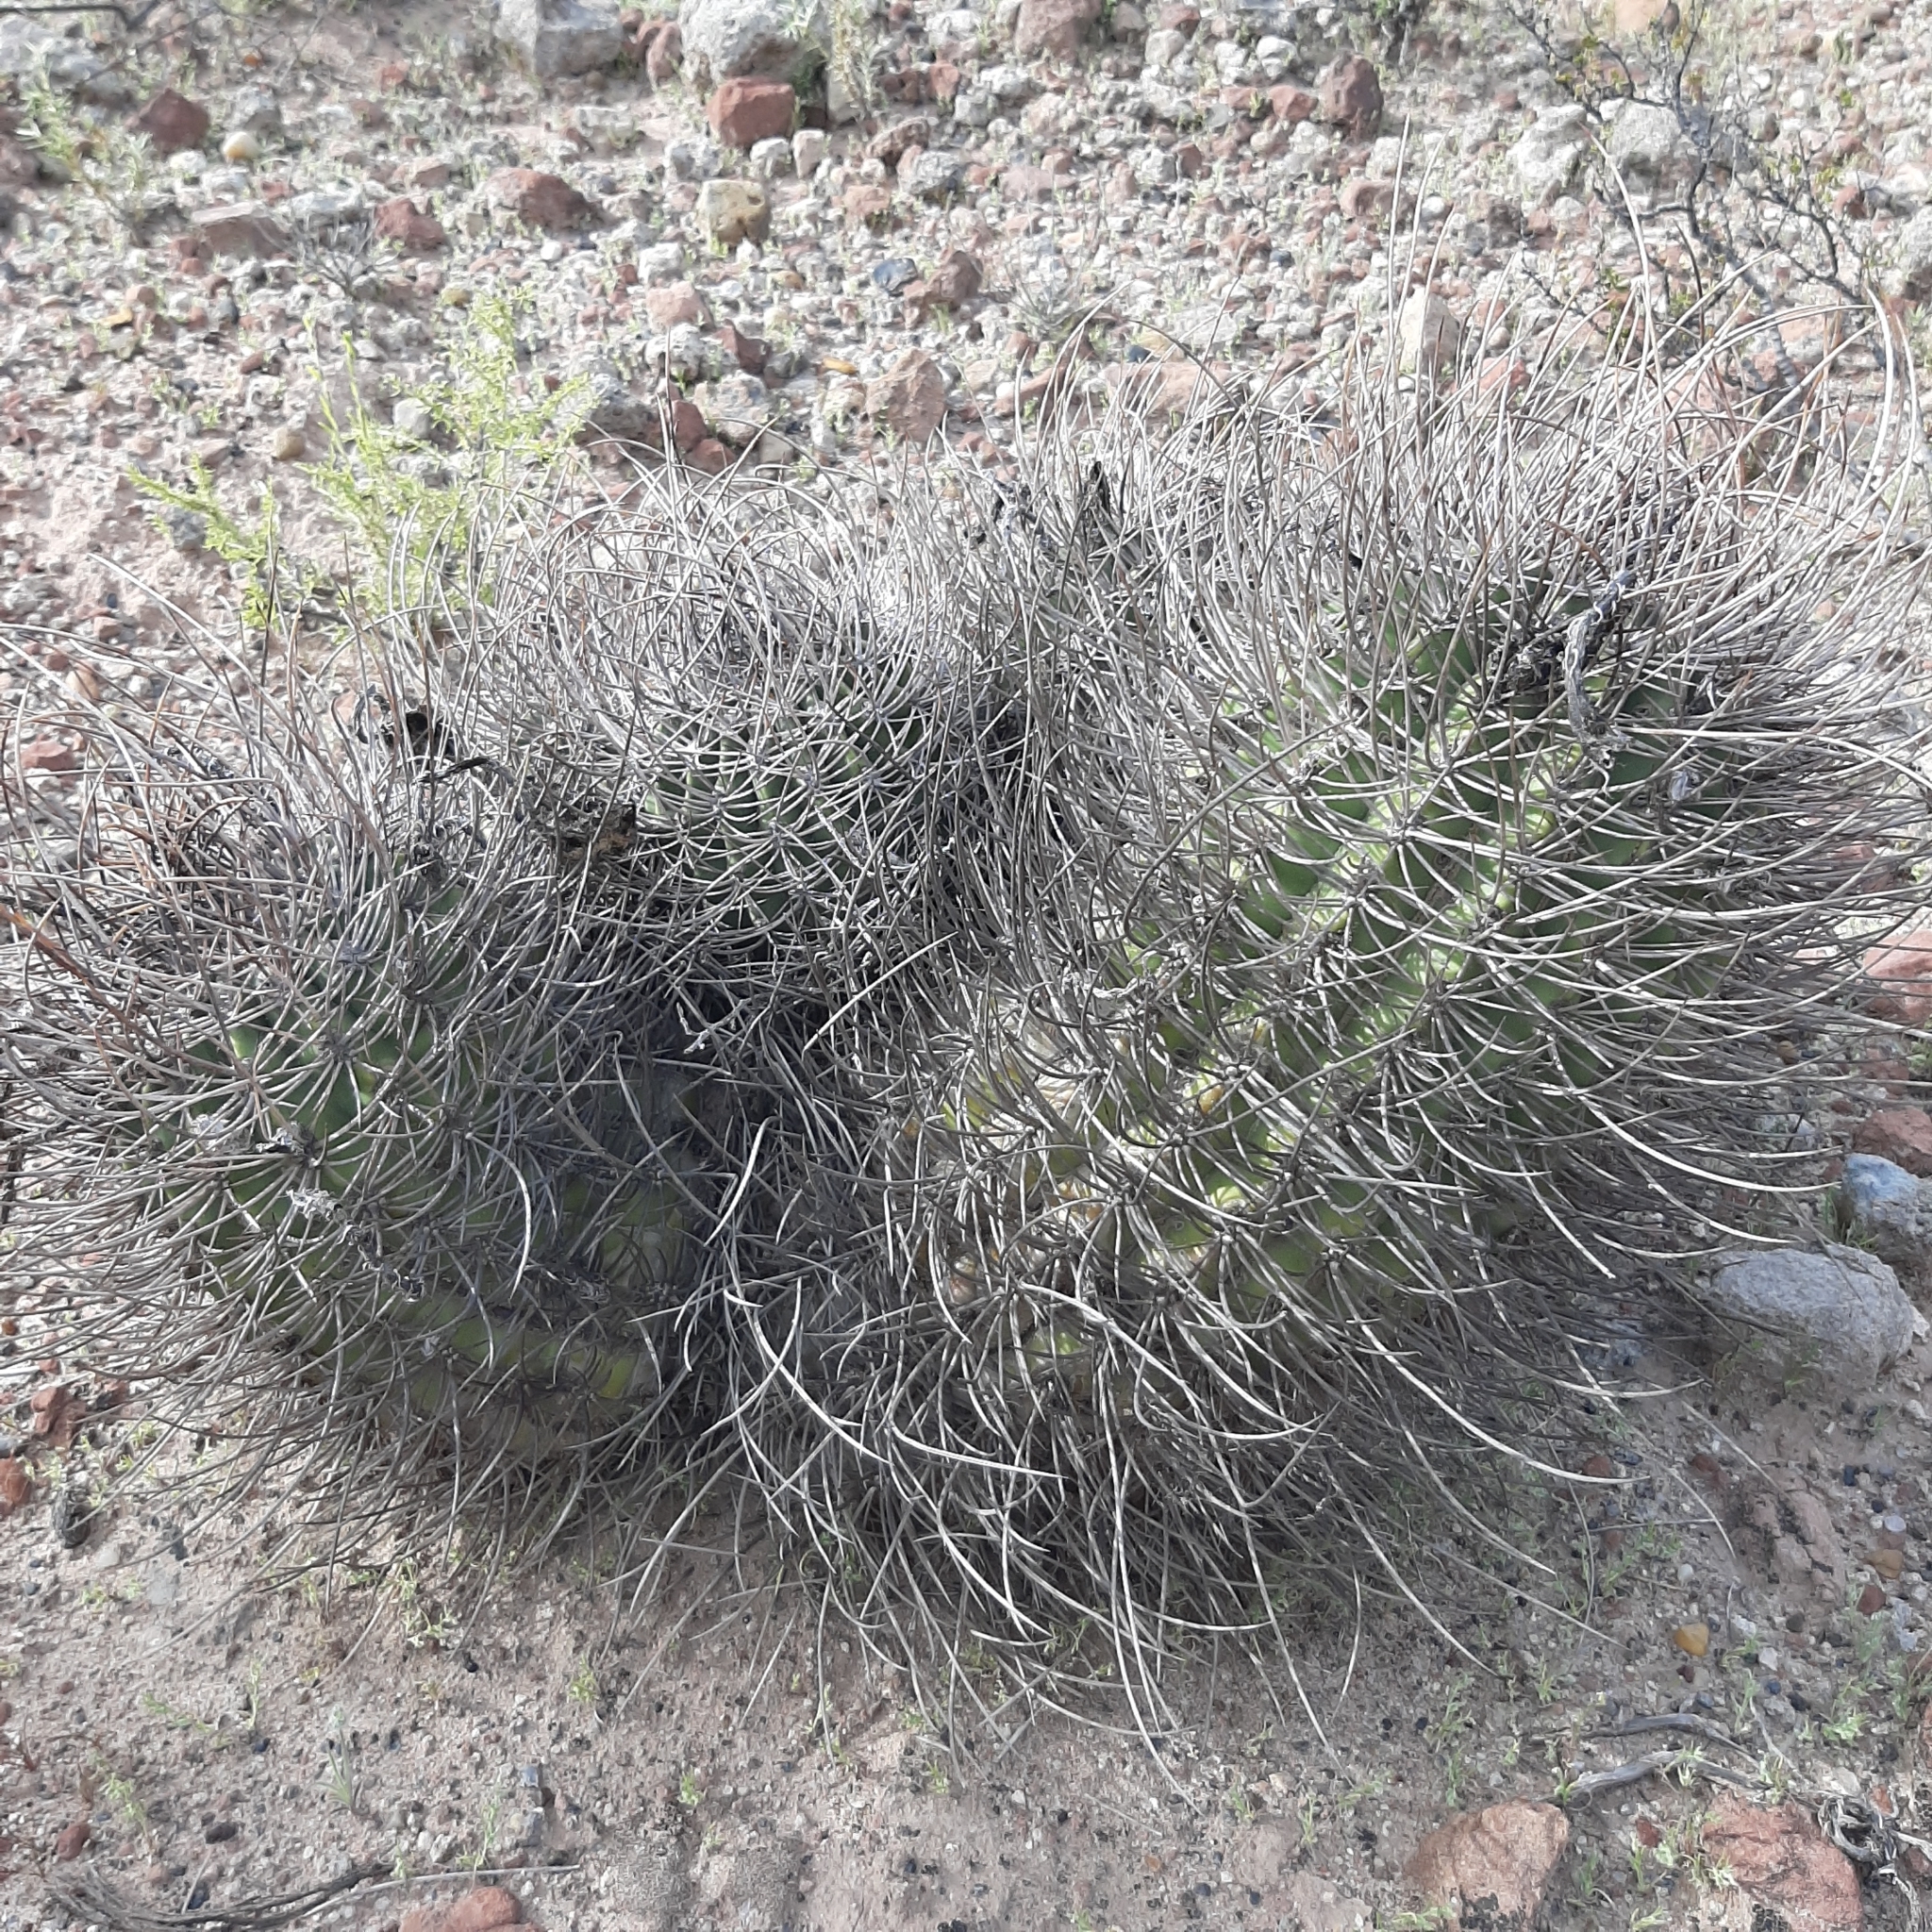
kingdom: Plantae
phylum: Tracheophyta
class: Magnoliopsida
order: Caryophyllales
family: Cactaceae
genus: Acanthocalycium
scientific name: Acanthocalycium leucanthum
